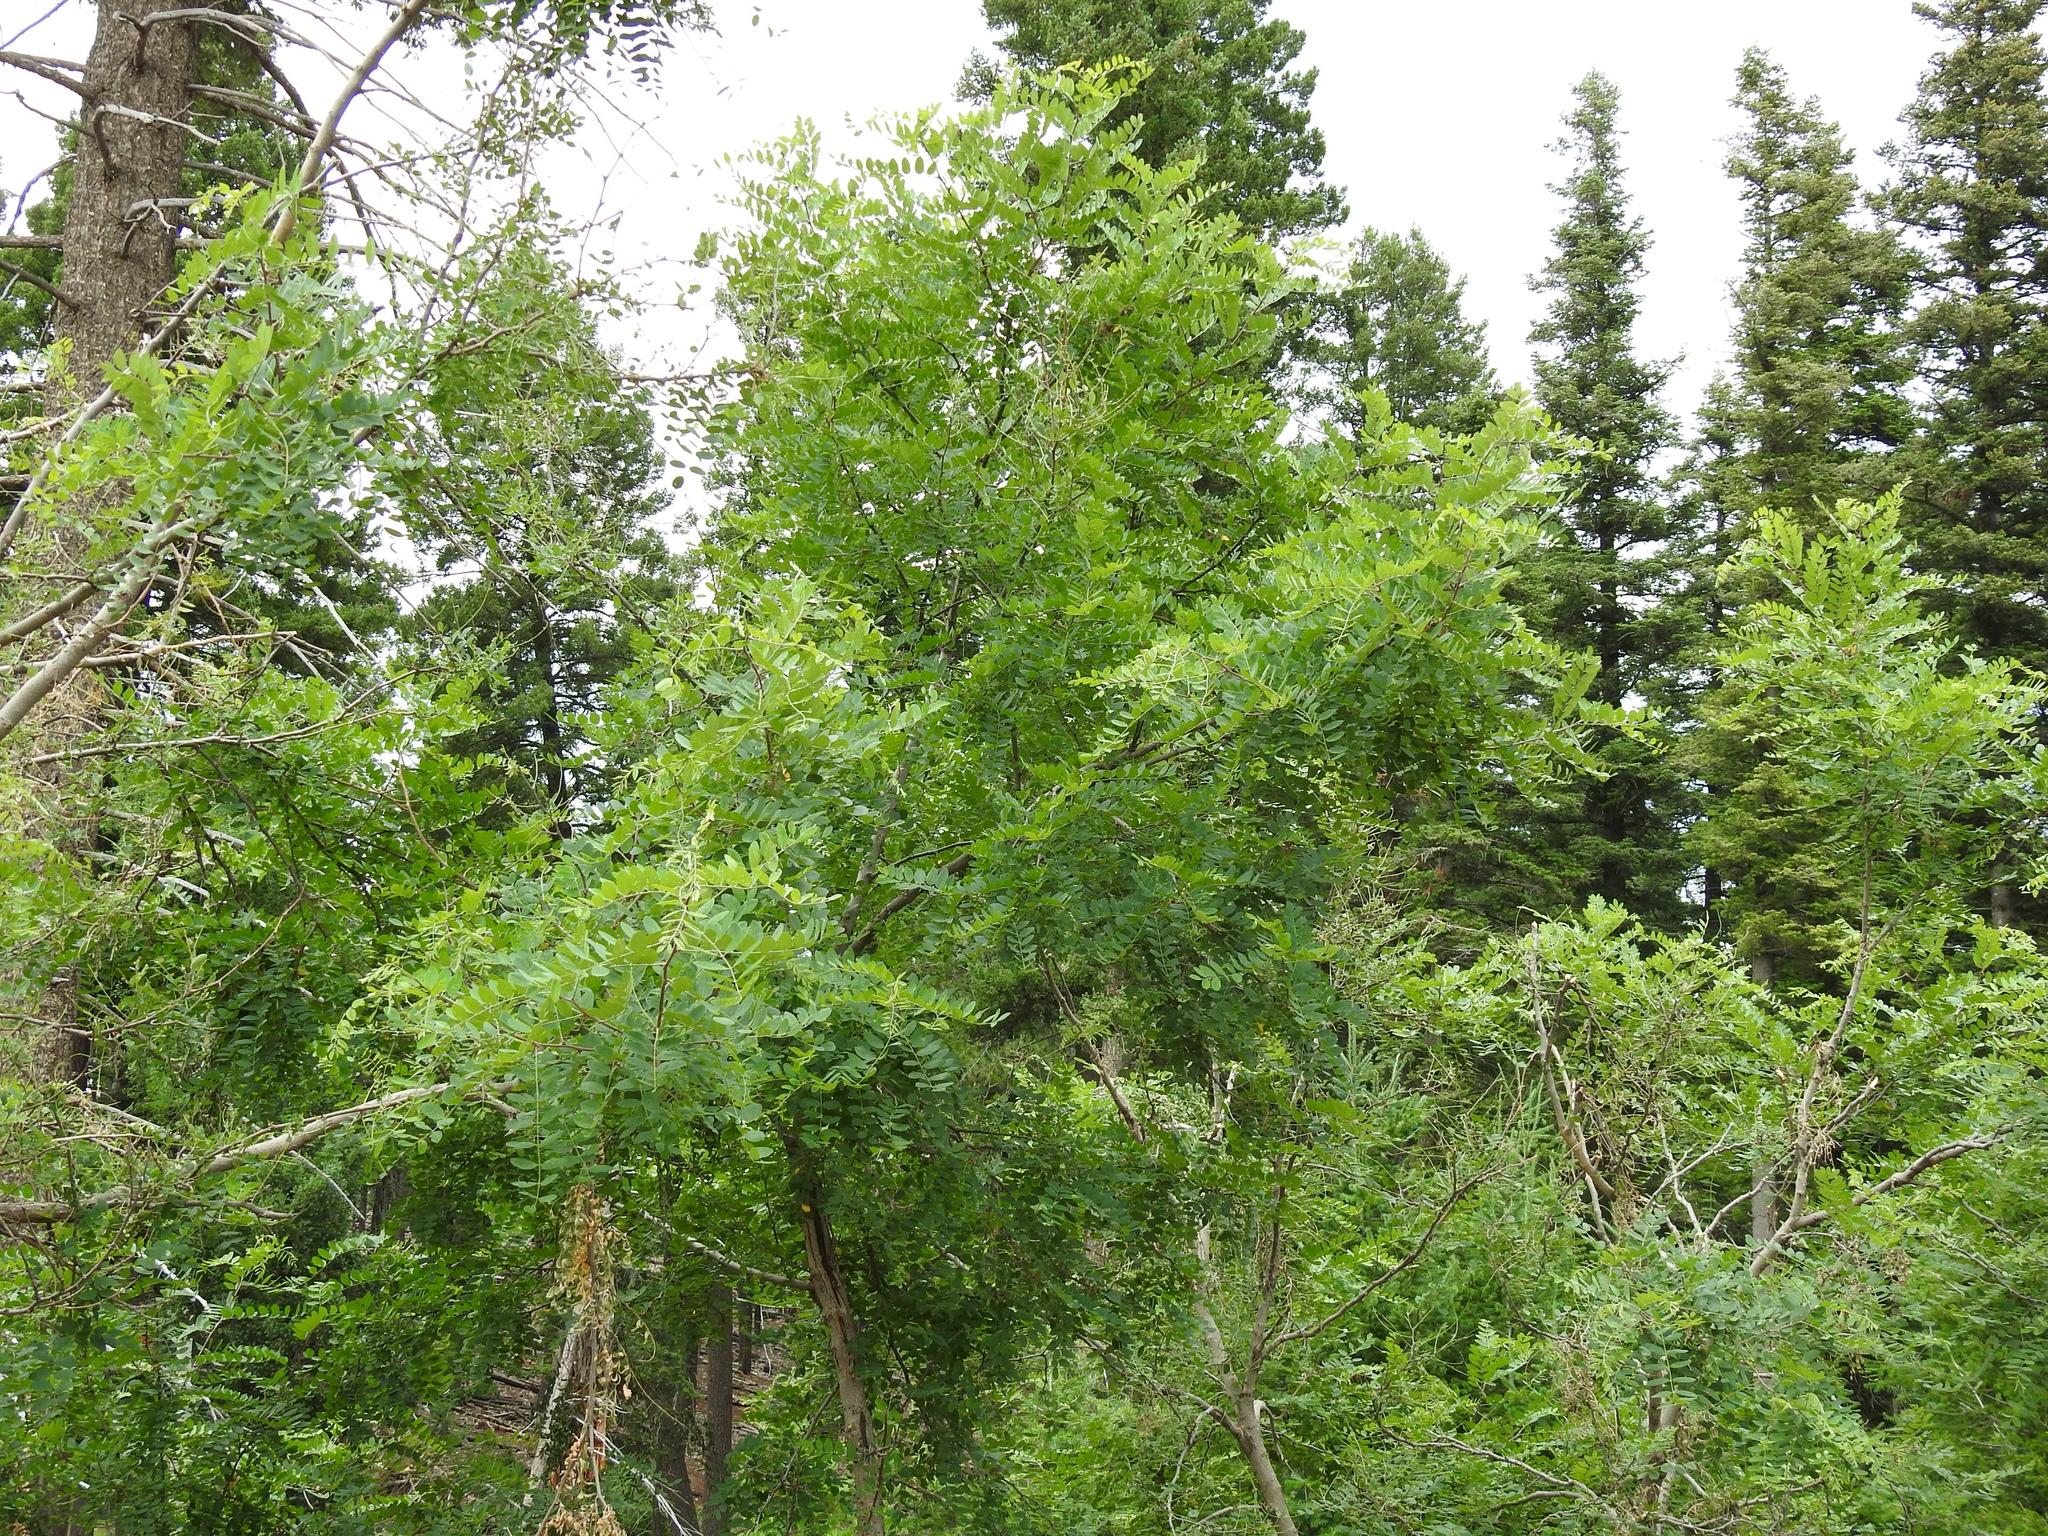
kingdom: Plantae
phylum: Tracheophyta
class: Magnoliopsida
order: Fabales
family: Fabaceae
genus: Robinia
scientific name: Robinia neomexicana
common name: New mexico locust
